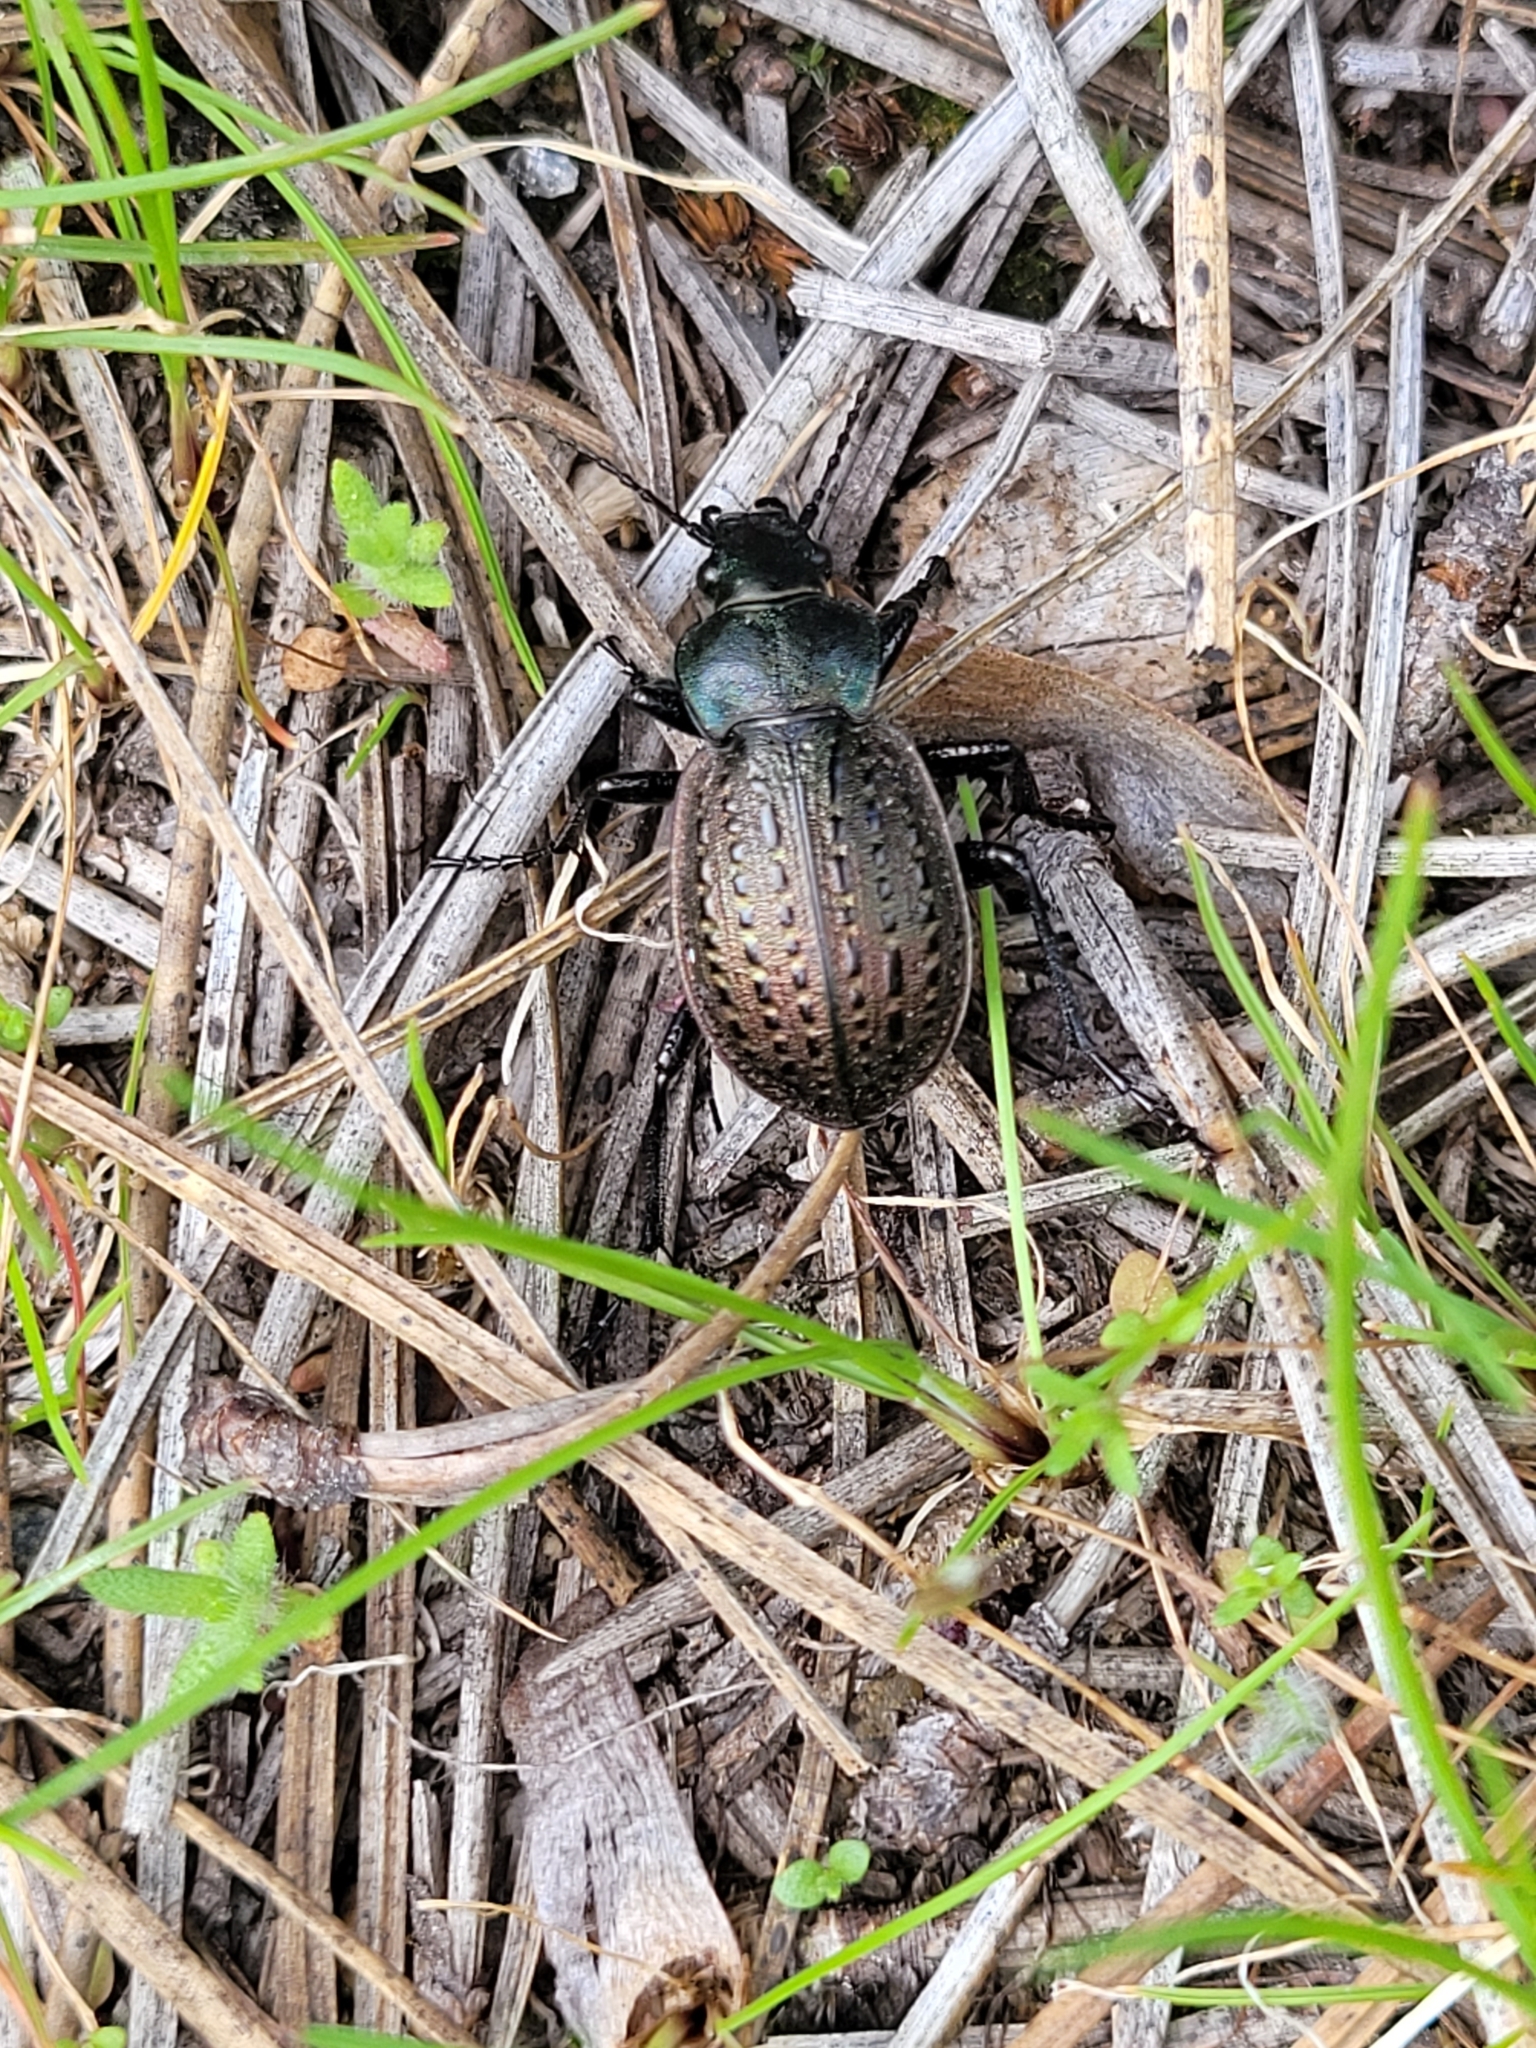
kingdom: Animalia
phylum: Arthropoda
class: Insecta
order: Coleoptera
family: Carabidae
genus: Calosoma
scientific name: Calosoma cancellatum
